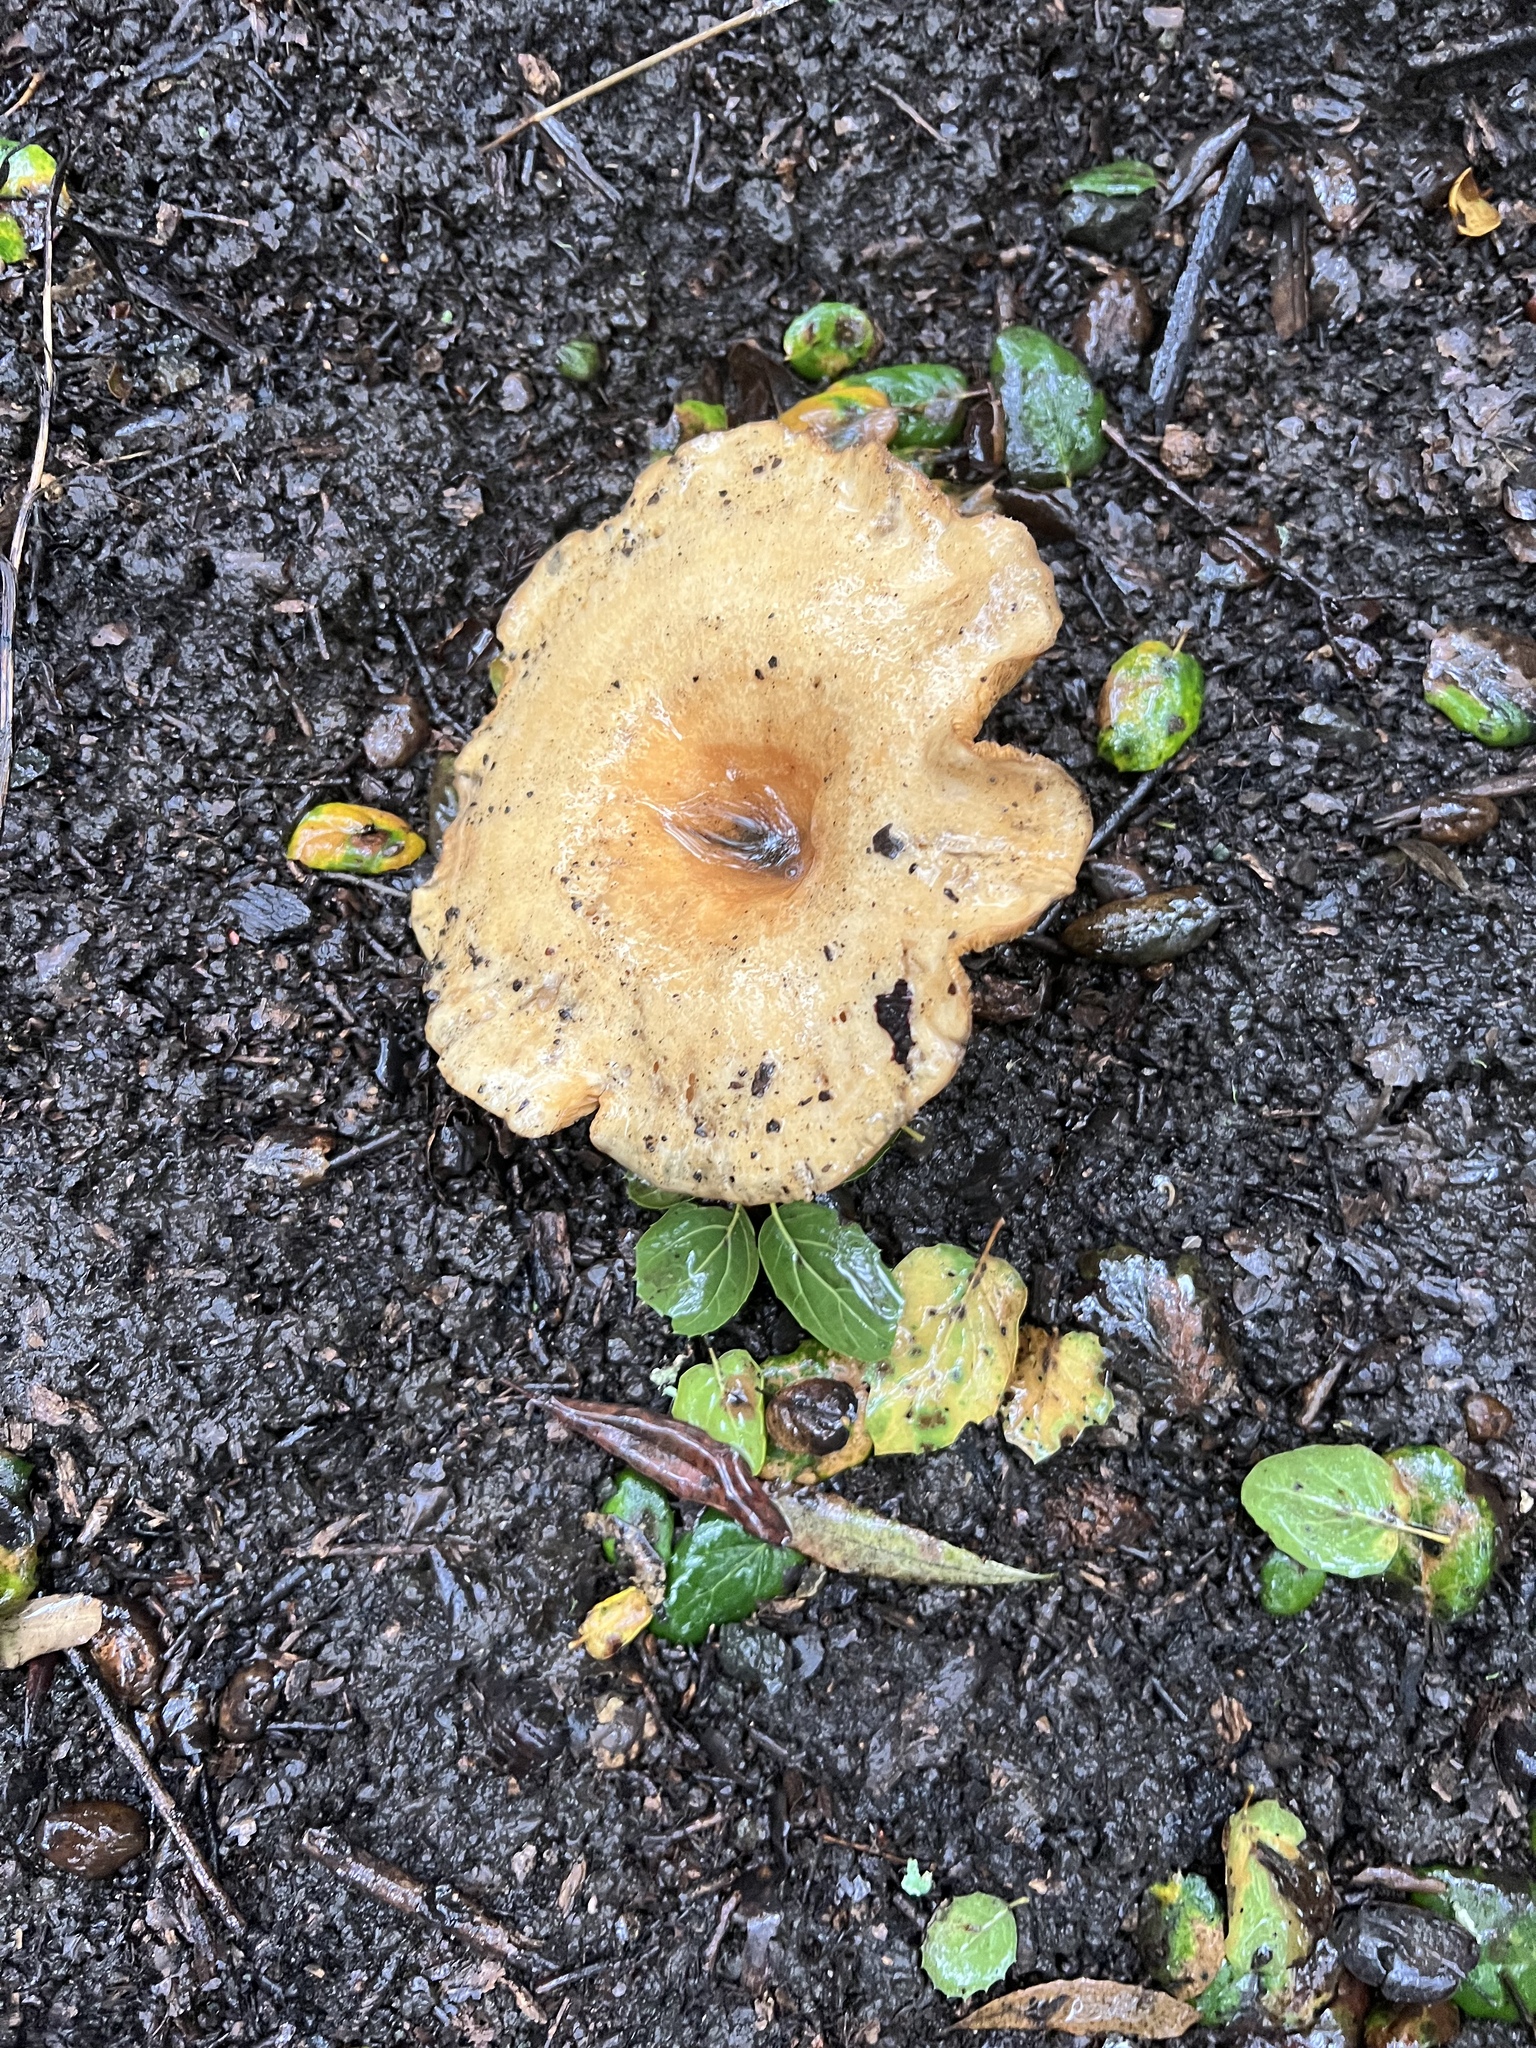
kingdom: Fungi
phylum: Basidiomycota
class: Agaricomycetes
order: Russulales
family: Russulaceae
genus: Lactarius
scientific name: Lactarius alnicola
